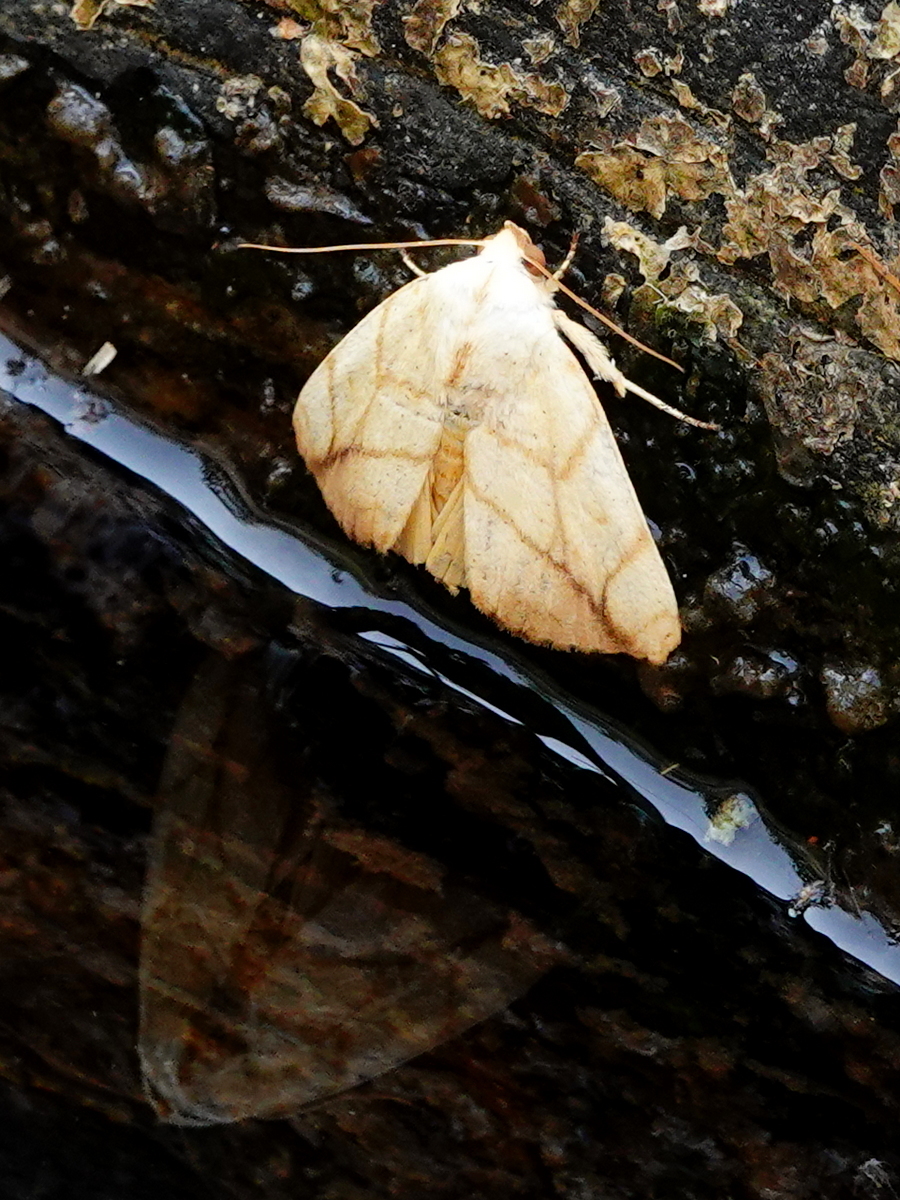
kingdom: Animalia
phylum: Arthropoda
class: Insecta
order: Lepidoptera
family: Nolidae
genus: Xanthodes
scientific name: Xanthodes transversa
